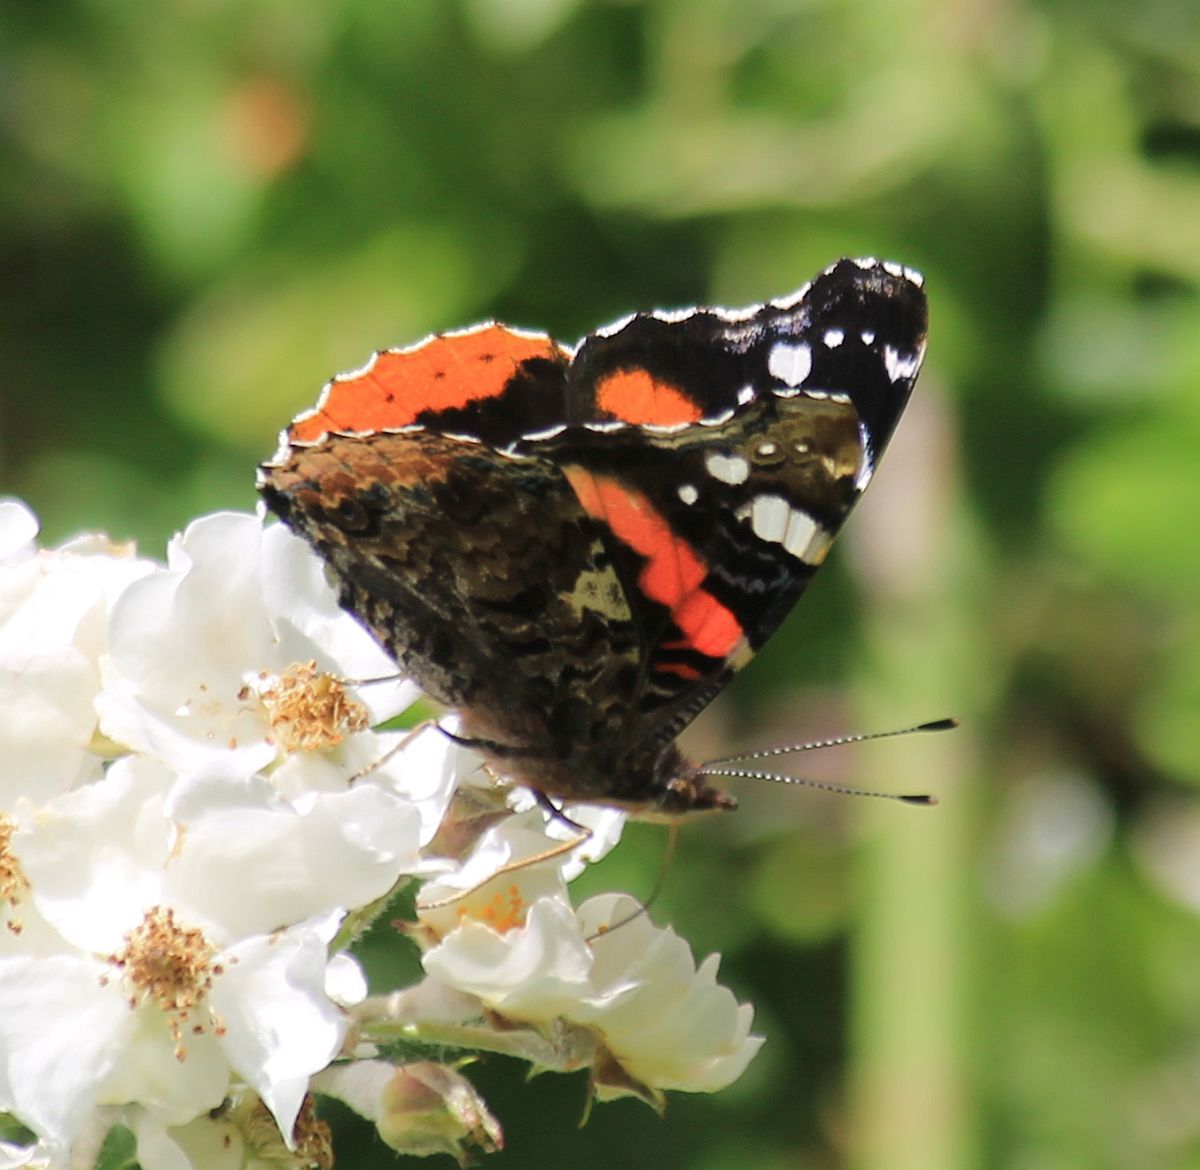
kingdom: Animalia
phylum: Arthropoda
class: Insecta
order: Lepidoptera
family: Nymphalidae
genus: Vanessa
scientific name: Vanessa atalanta
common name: Red admiral
